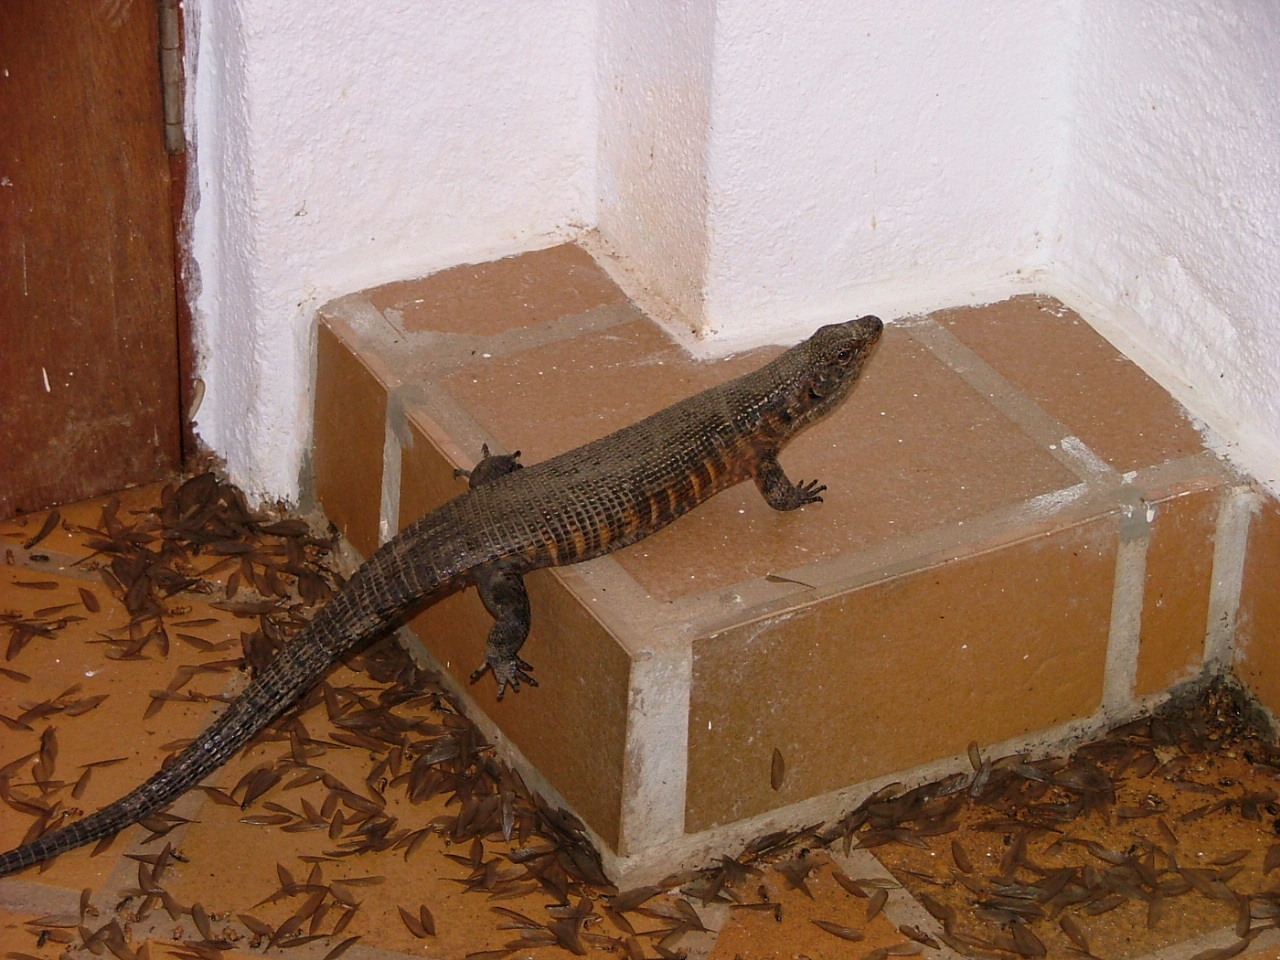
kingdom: Animalia
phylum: Chordata
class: Squamata
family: Gerrhosauridae
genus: Matobosaurus
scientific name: Matobosaurus validus
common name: Common giant plated lizard
